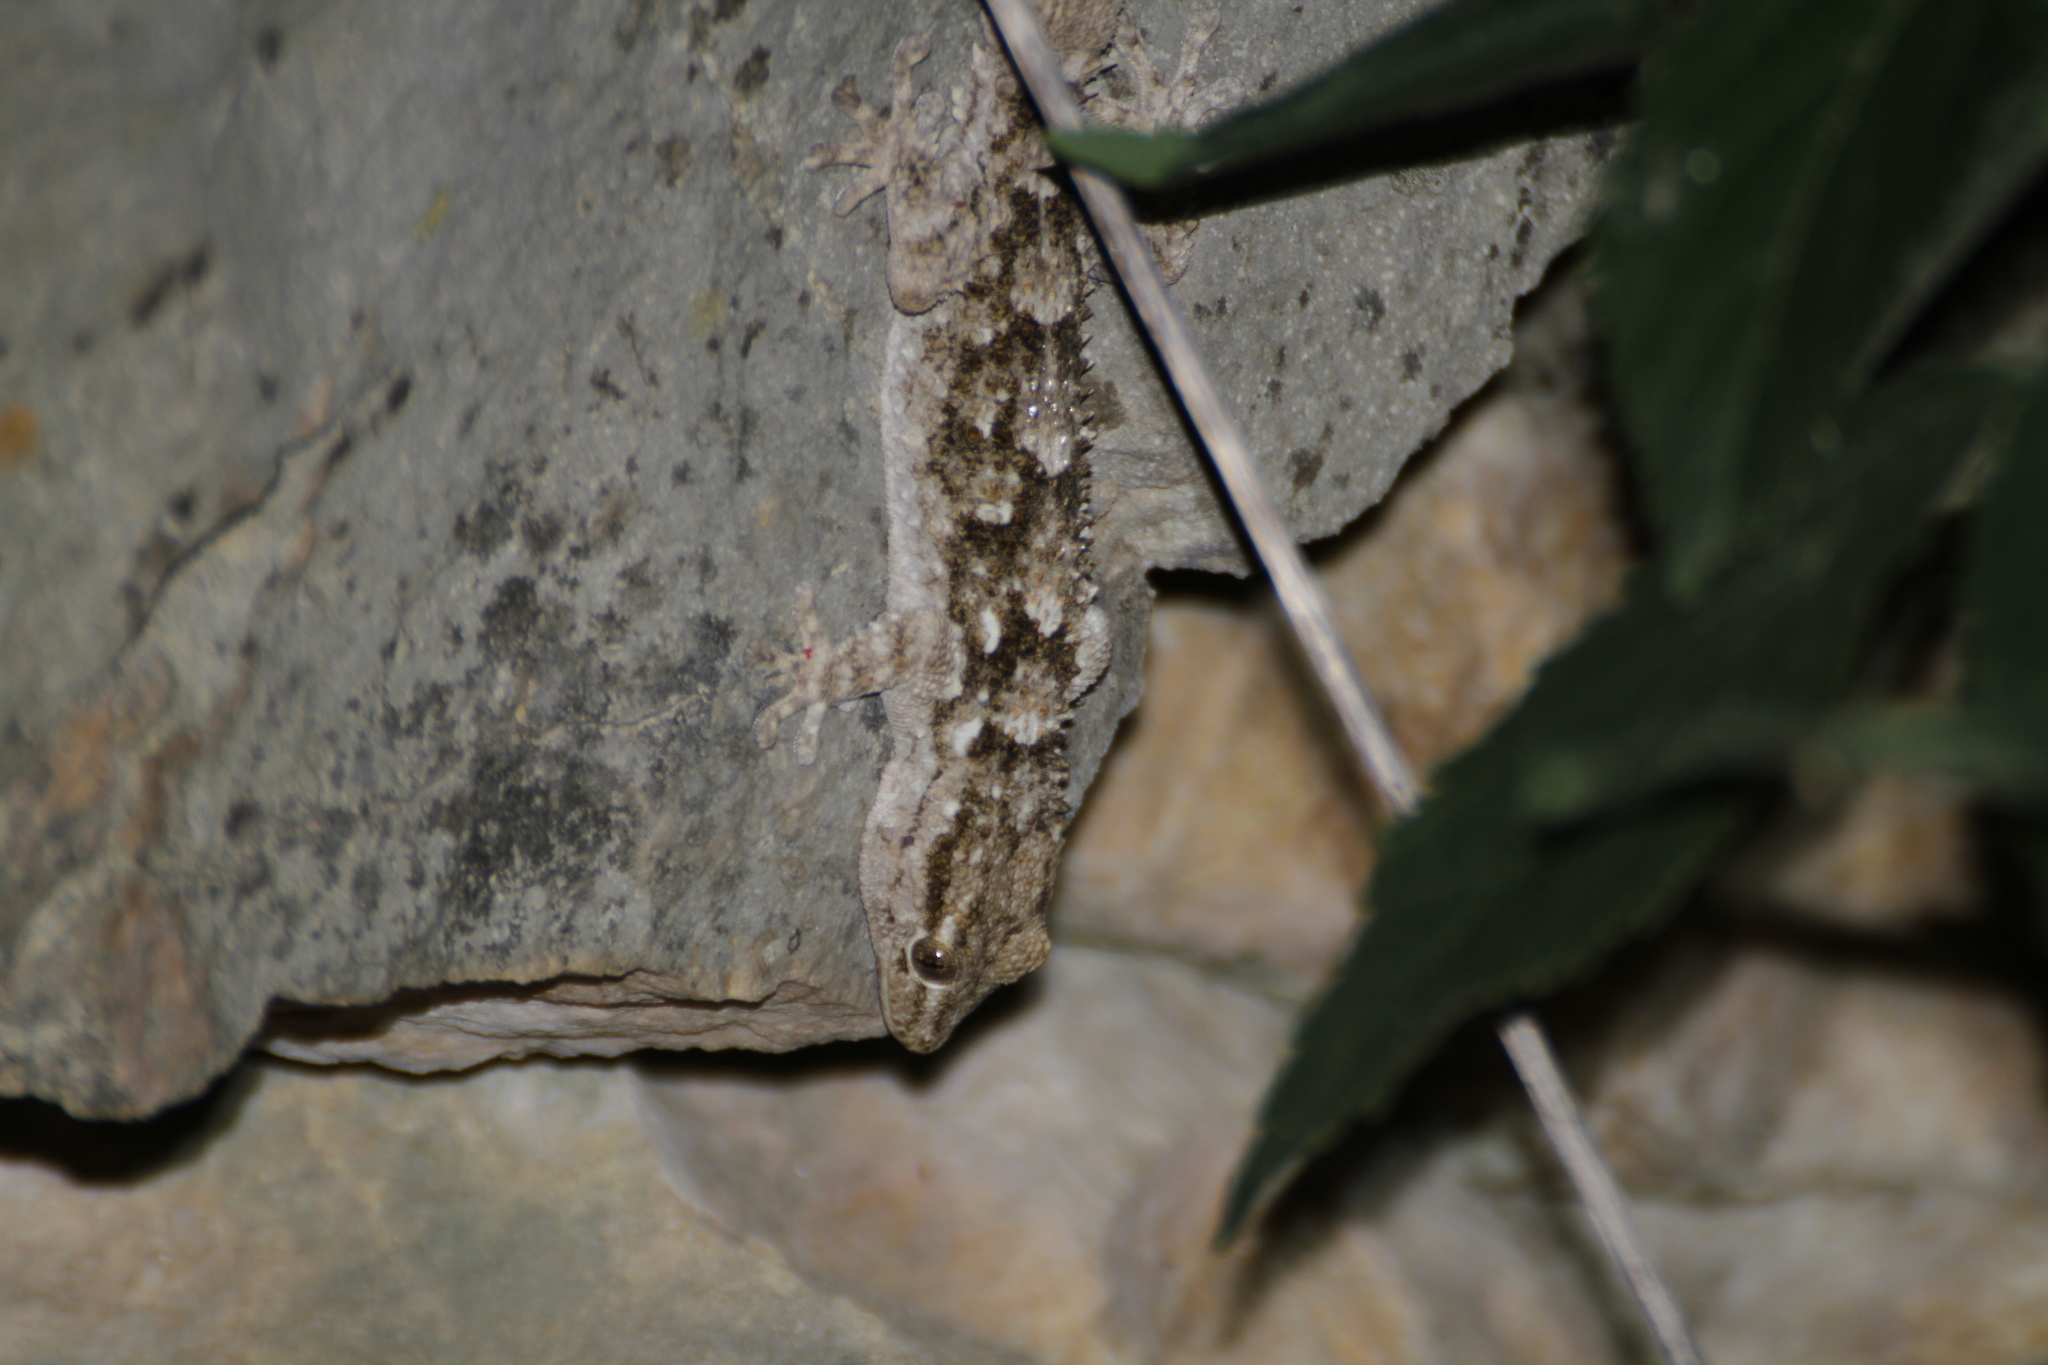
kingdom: Animalia
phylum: Chordata
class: Squamata
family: Phyllodactylidae
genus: Tarentola
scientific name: Tarentola mauritanica
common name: Moorish gecko
